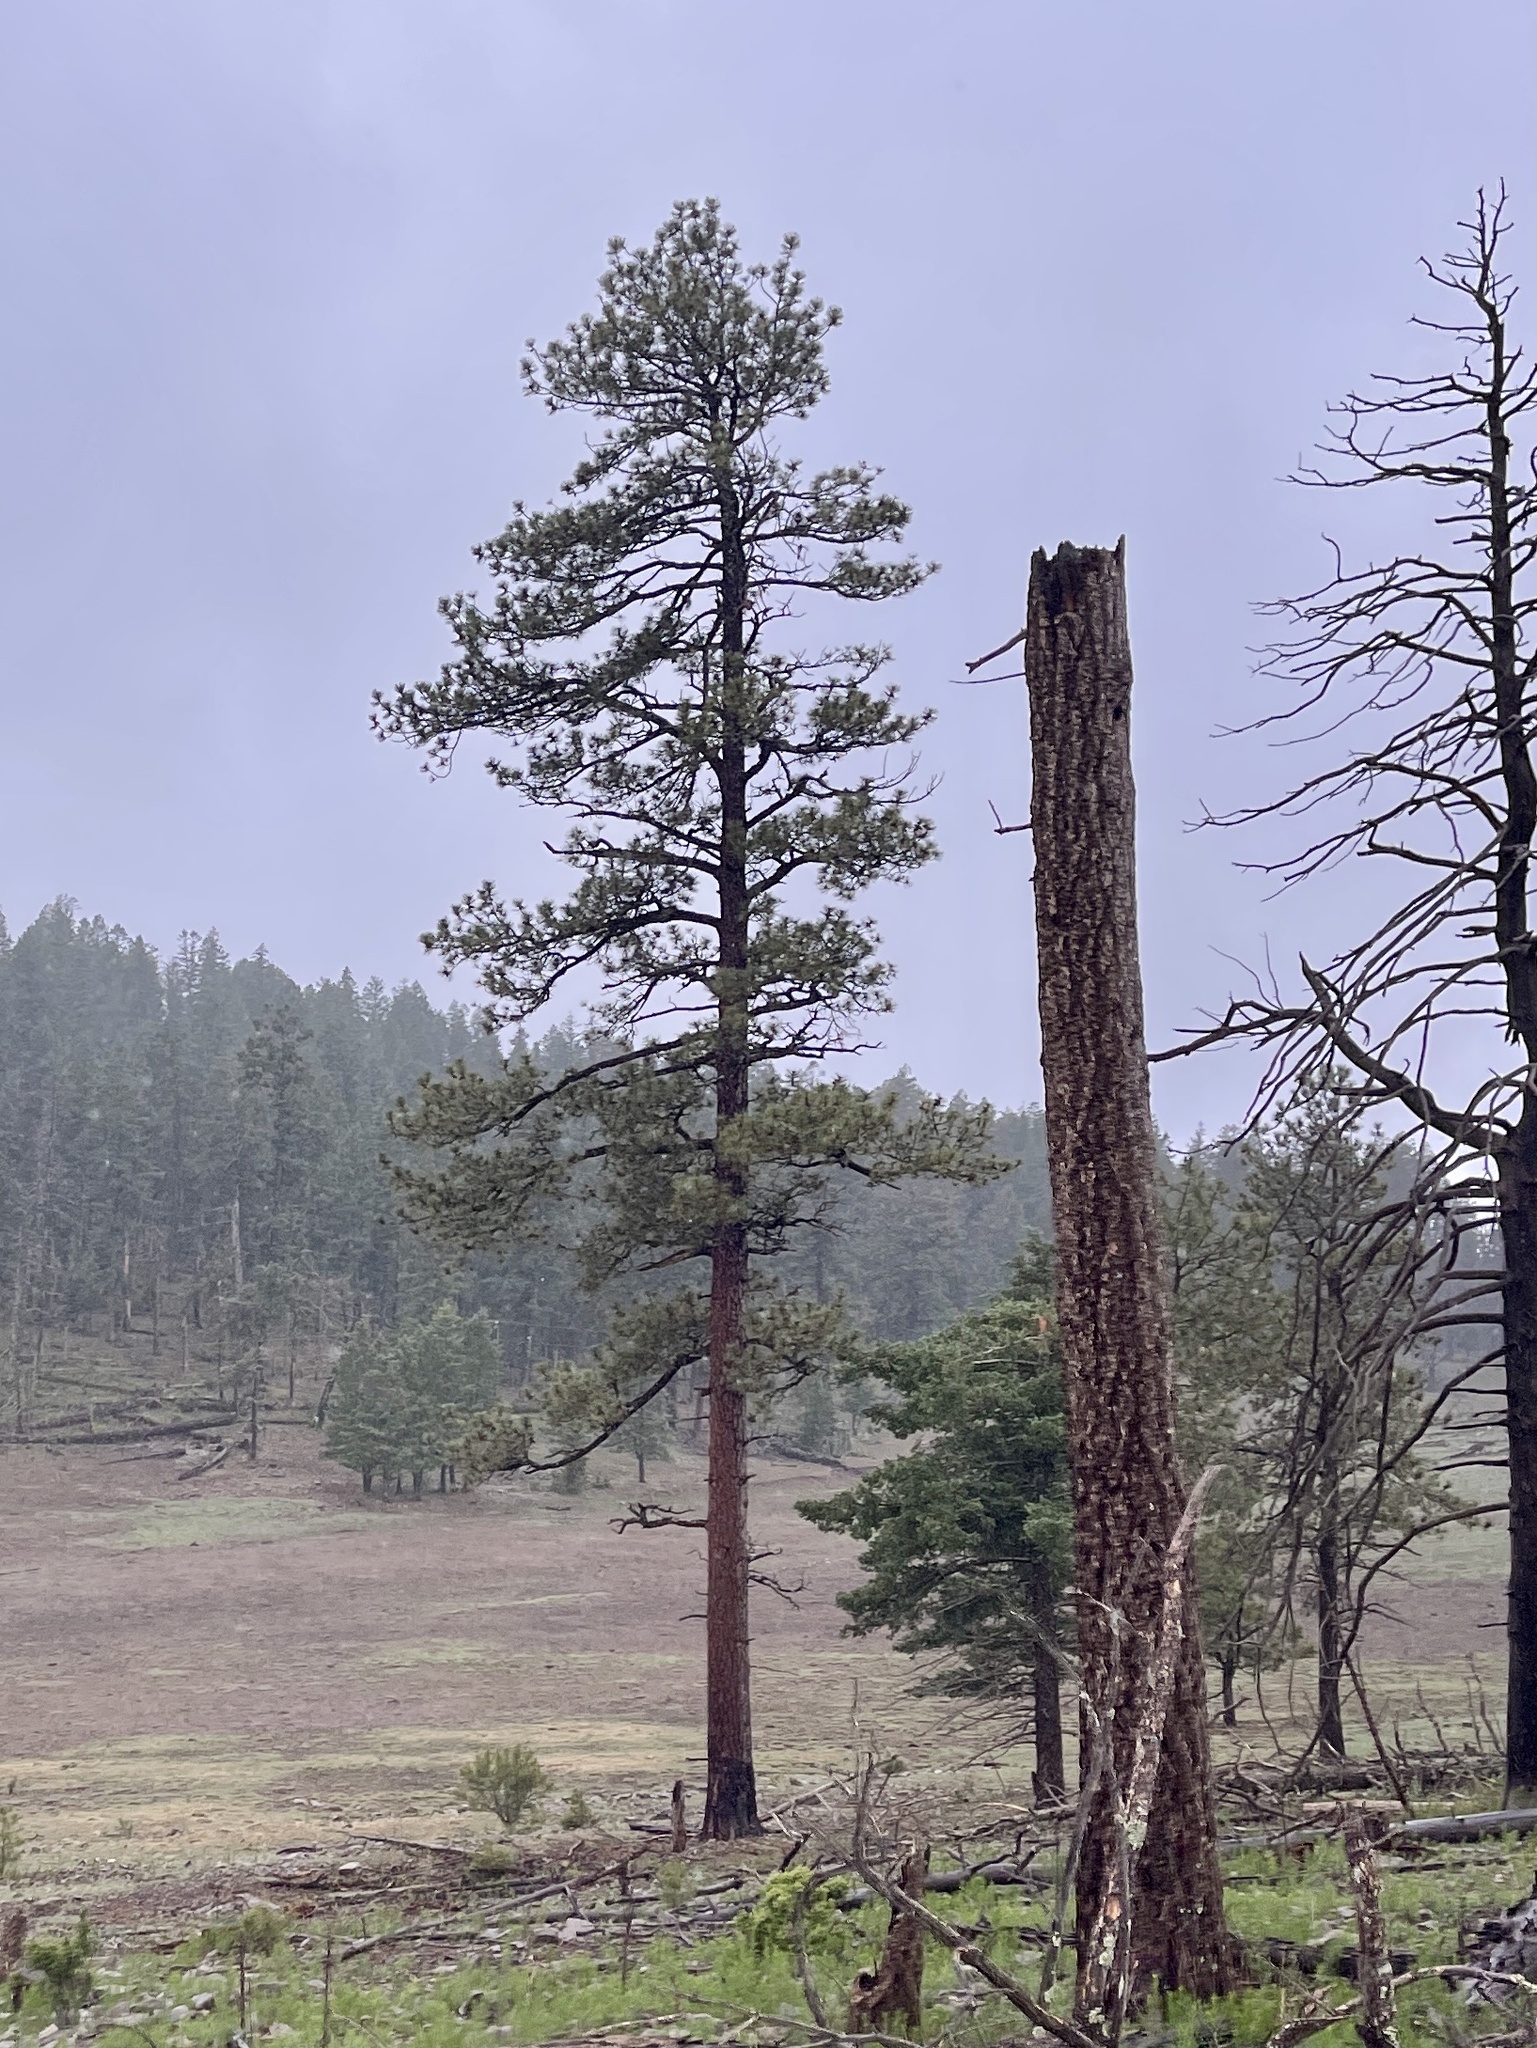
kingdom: Plantae
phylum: Tracheophyta
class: Pinopsida
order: Pinales
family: Pinaceae
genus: Pinus
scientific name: Pinus ponderosa
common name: Western yellow-pine
